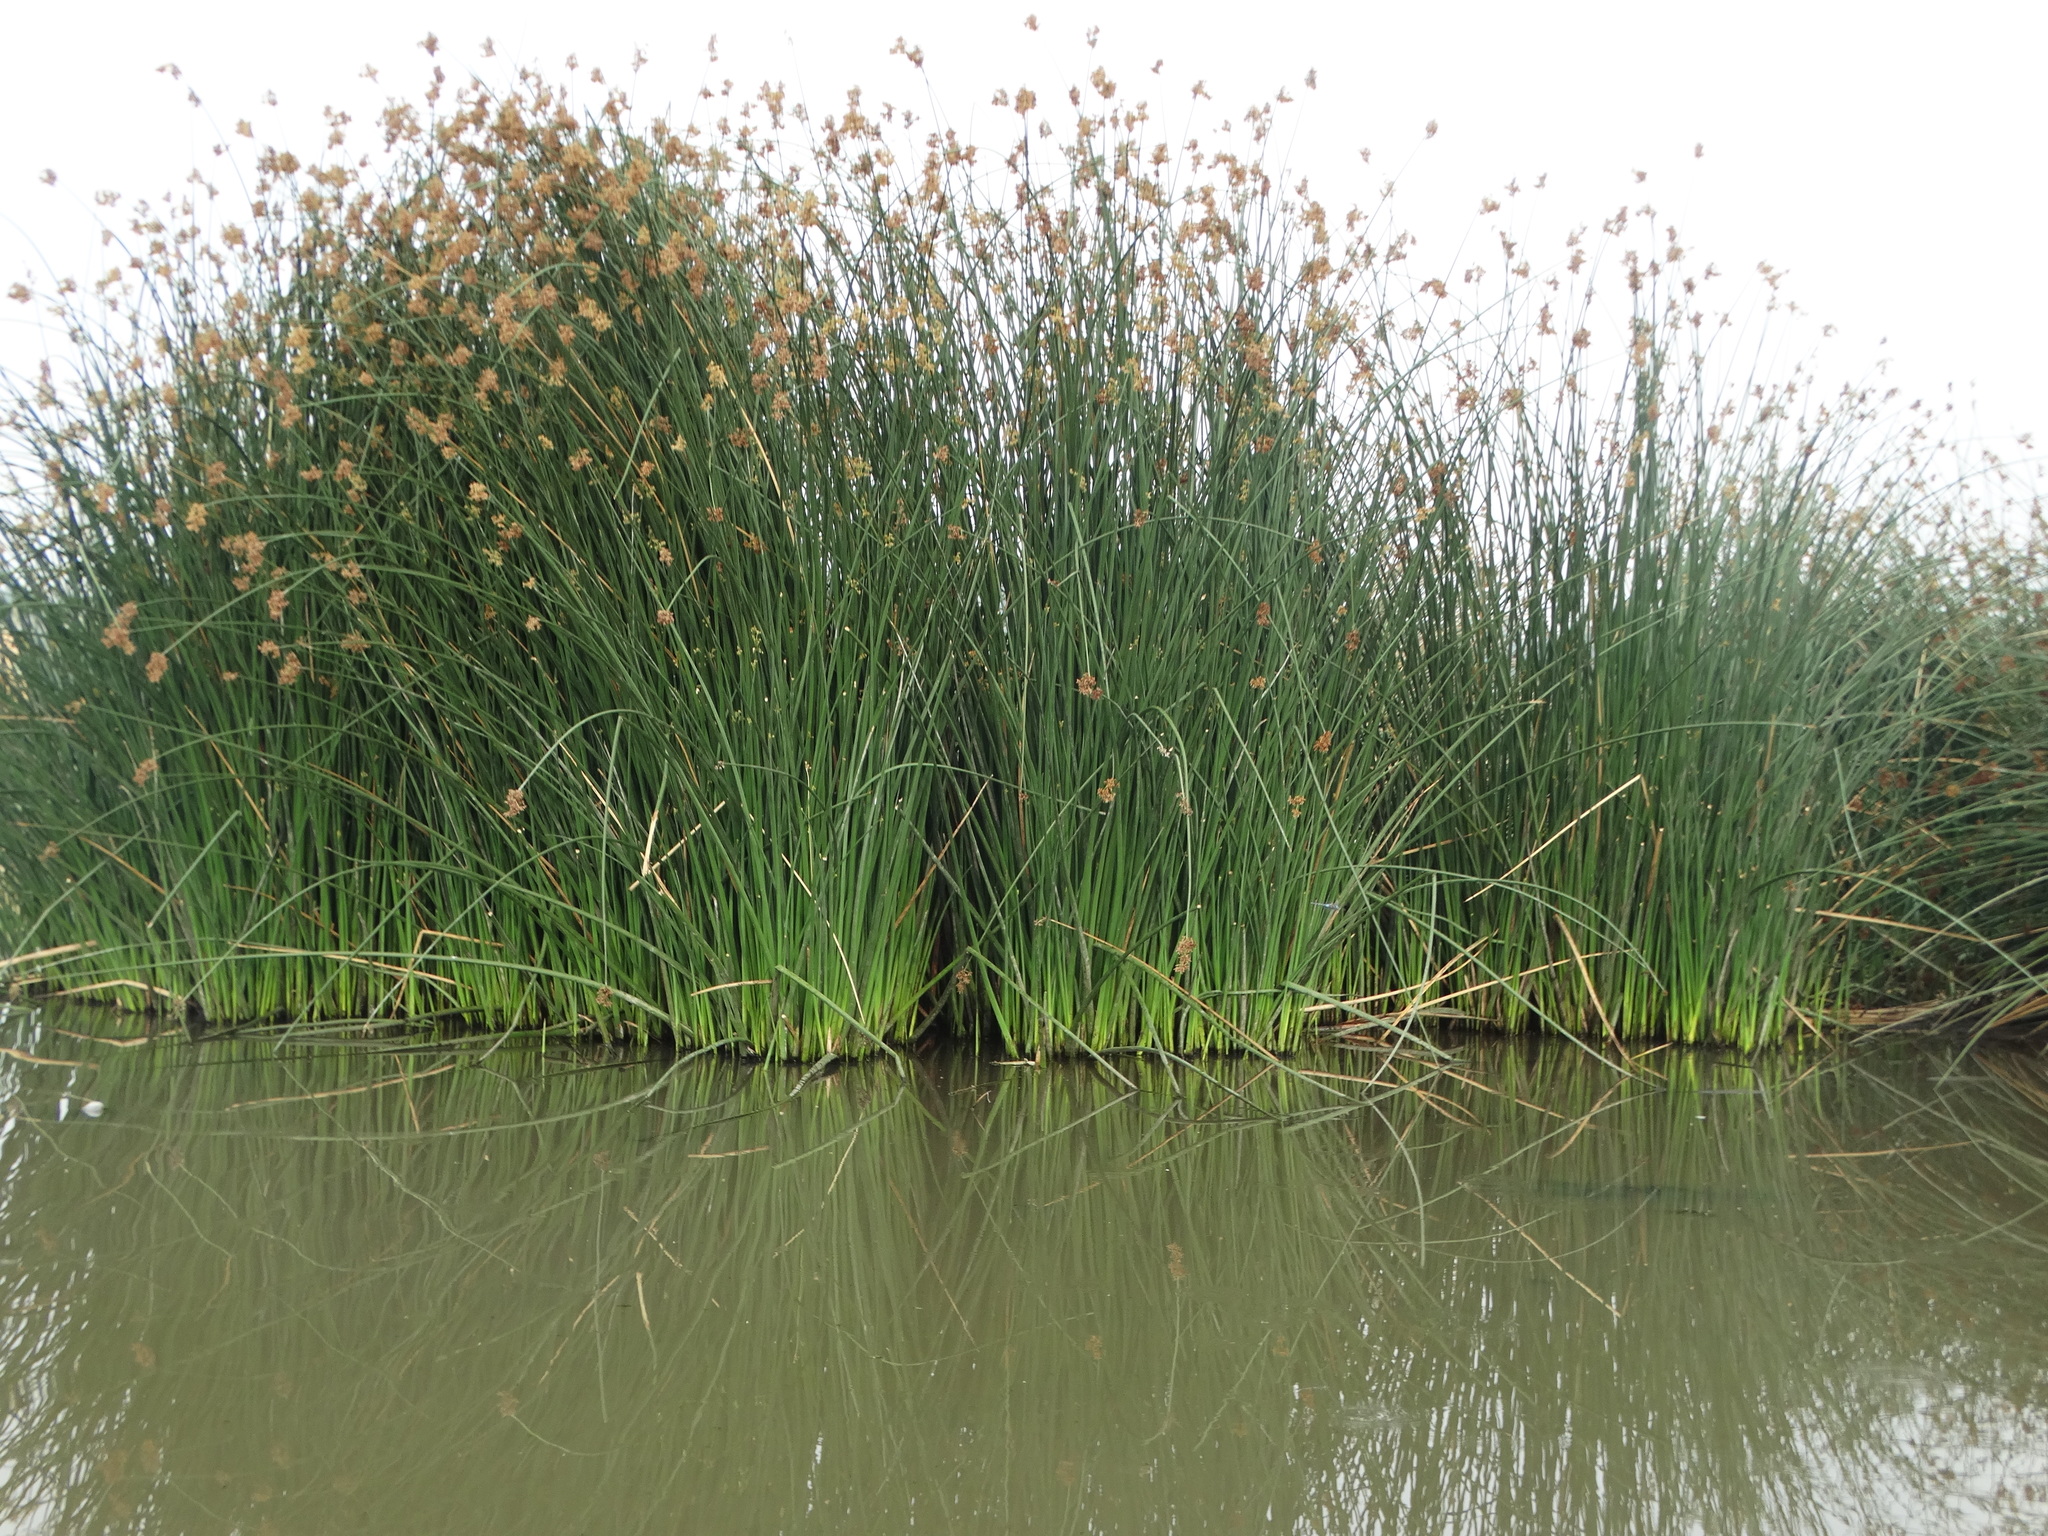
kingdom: Plantae
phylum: Tracheophyta
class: Liliopsida
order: Poales
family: Cyperaceae
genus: Schoenoplectus
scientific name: Schoenoplectus californicus
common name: California bulrush
